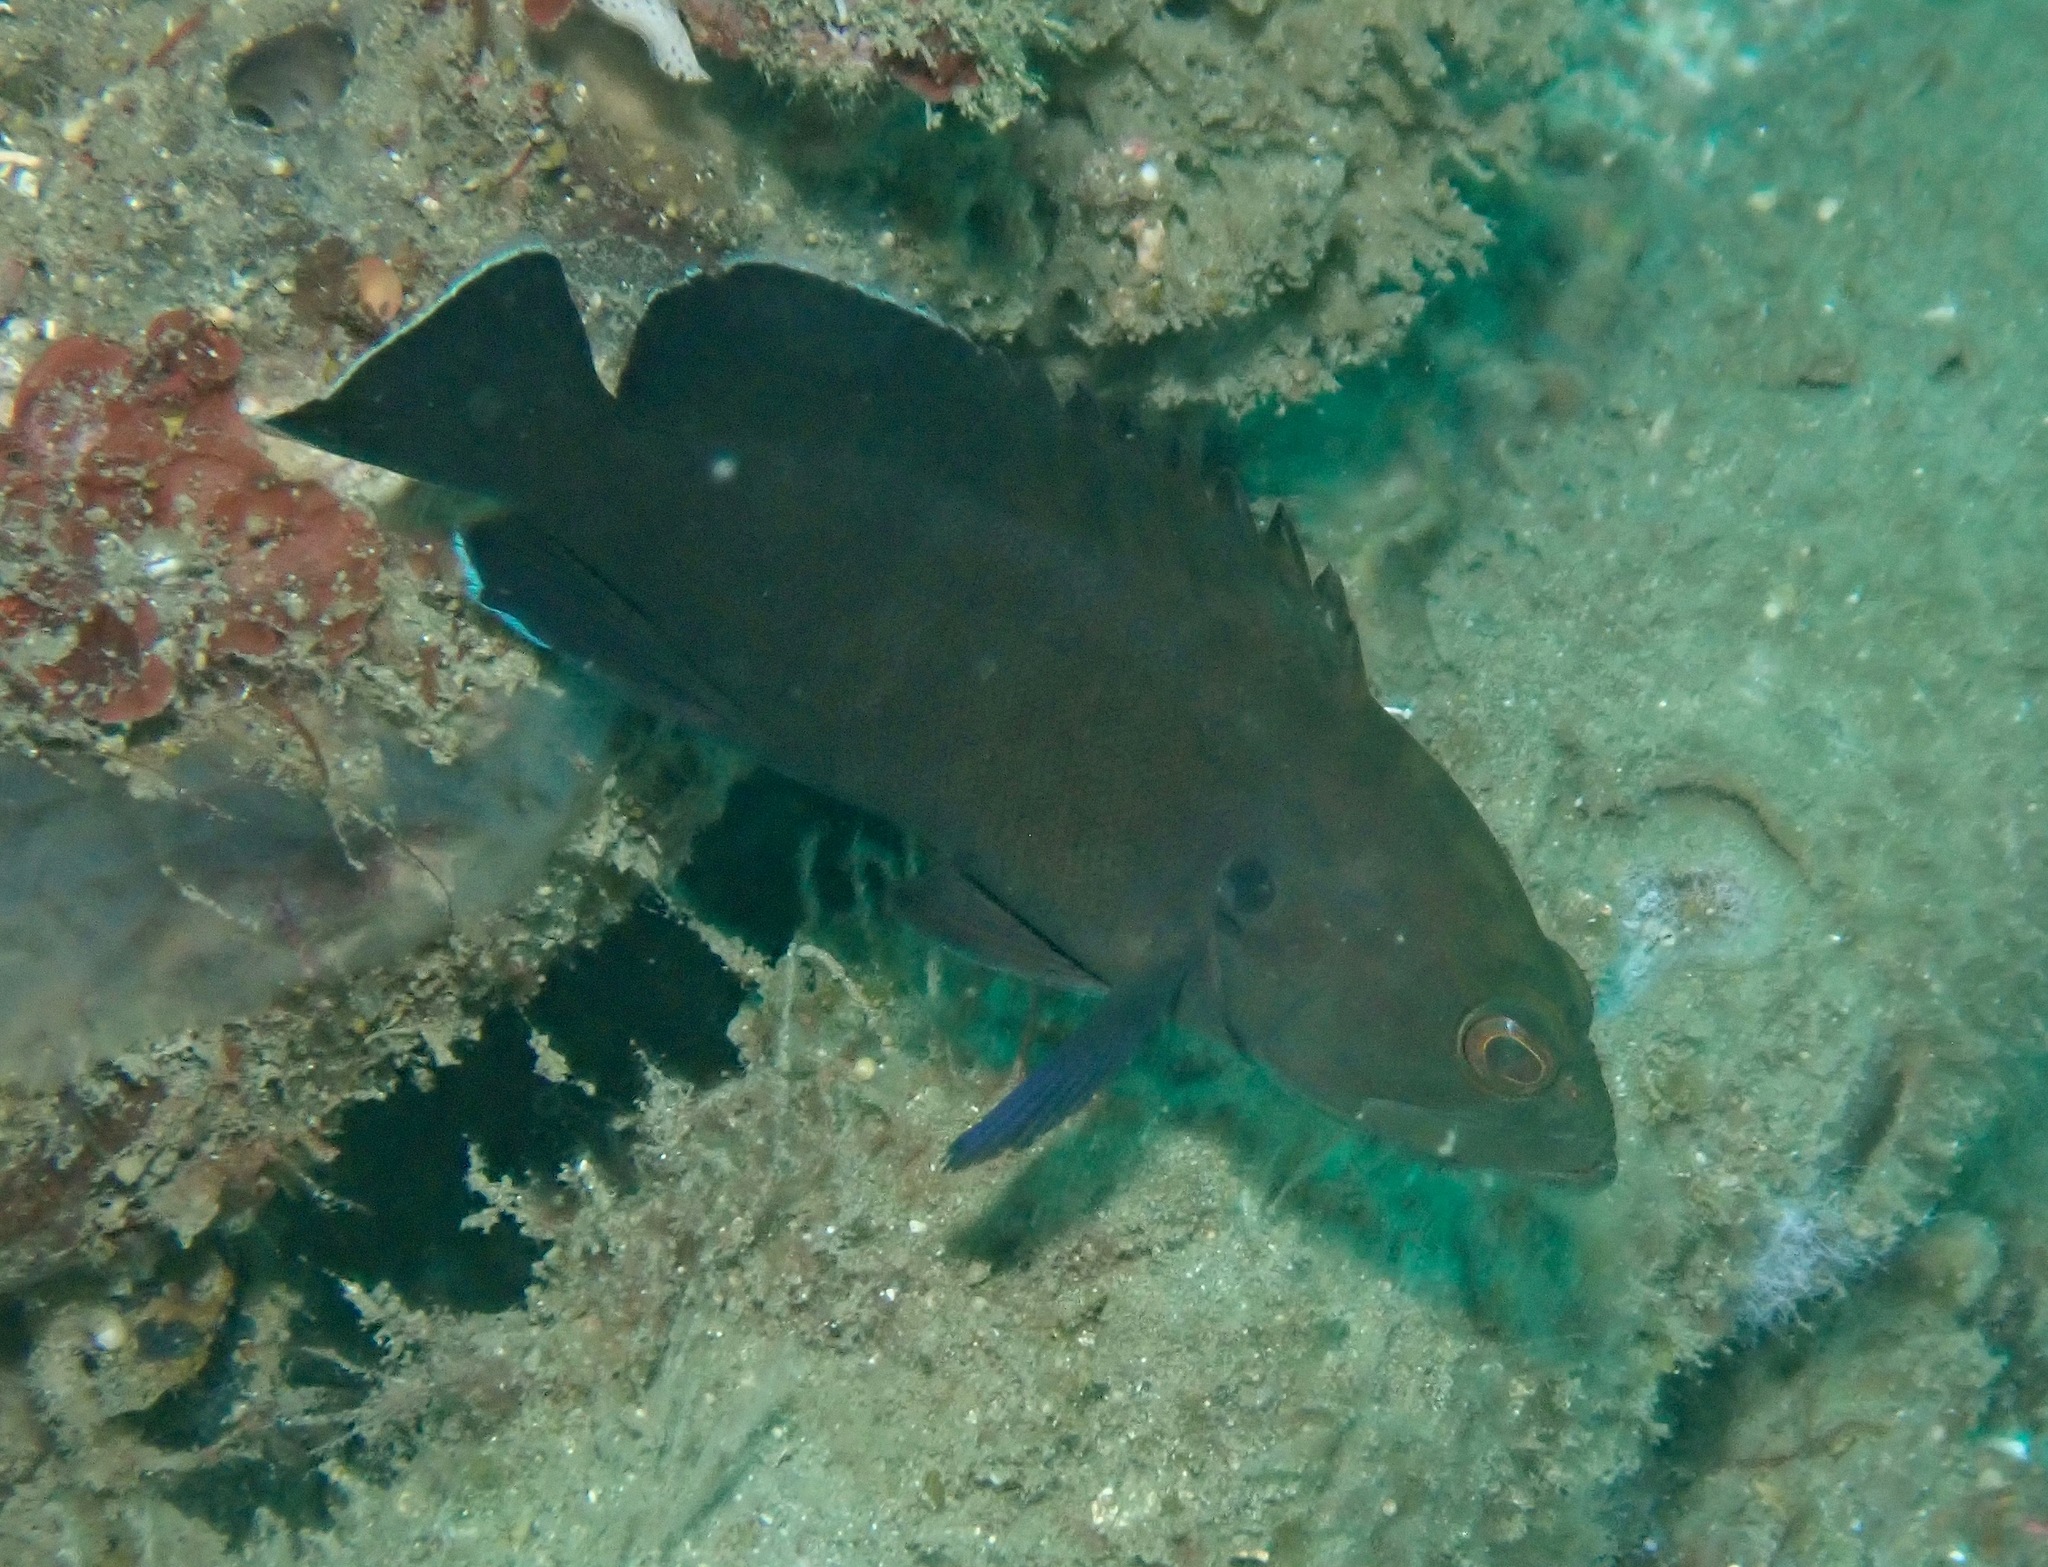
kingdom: Animalia
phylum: Chordata
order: Perciformes
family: Serranidae
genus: Cephalopholis
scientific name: Cephalopholis boenak
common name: Chocolate hind
